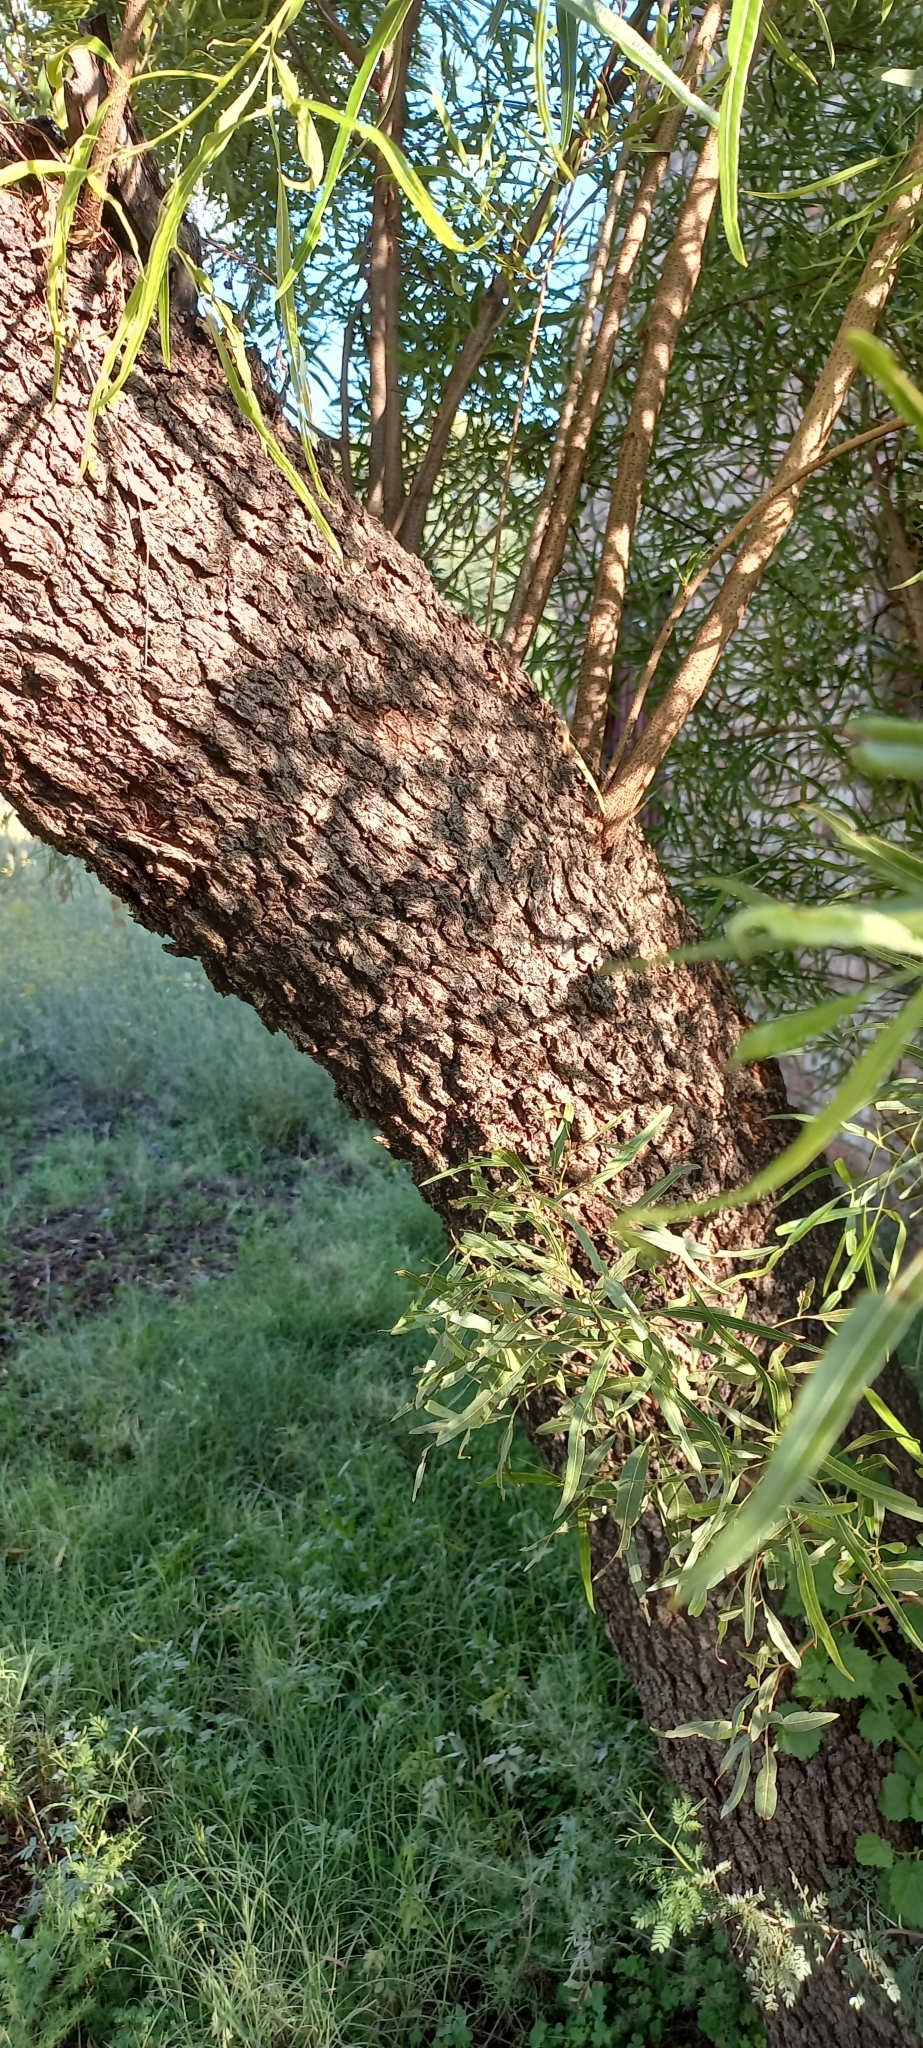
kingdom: Plantae
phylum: Tracheophyta
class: Magnoliopsida
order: Sapindales
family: Anacardiaceae
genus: Searsia
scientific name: Searsia lancea
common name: Cashew
